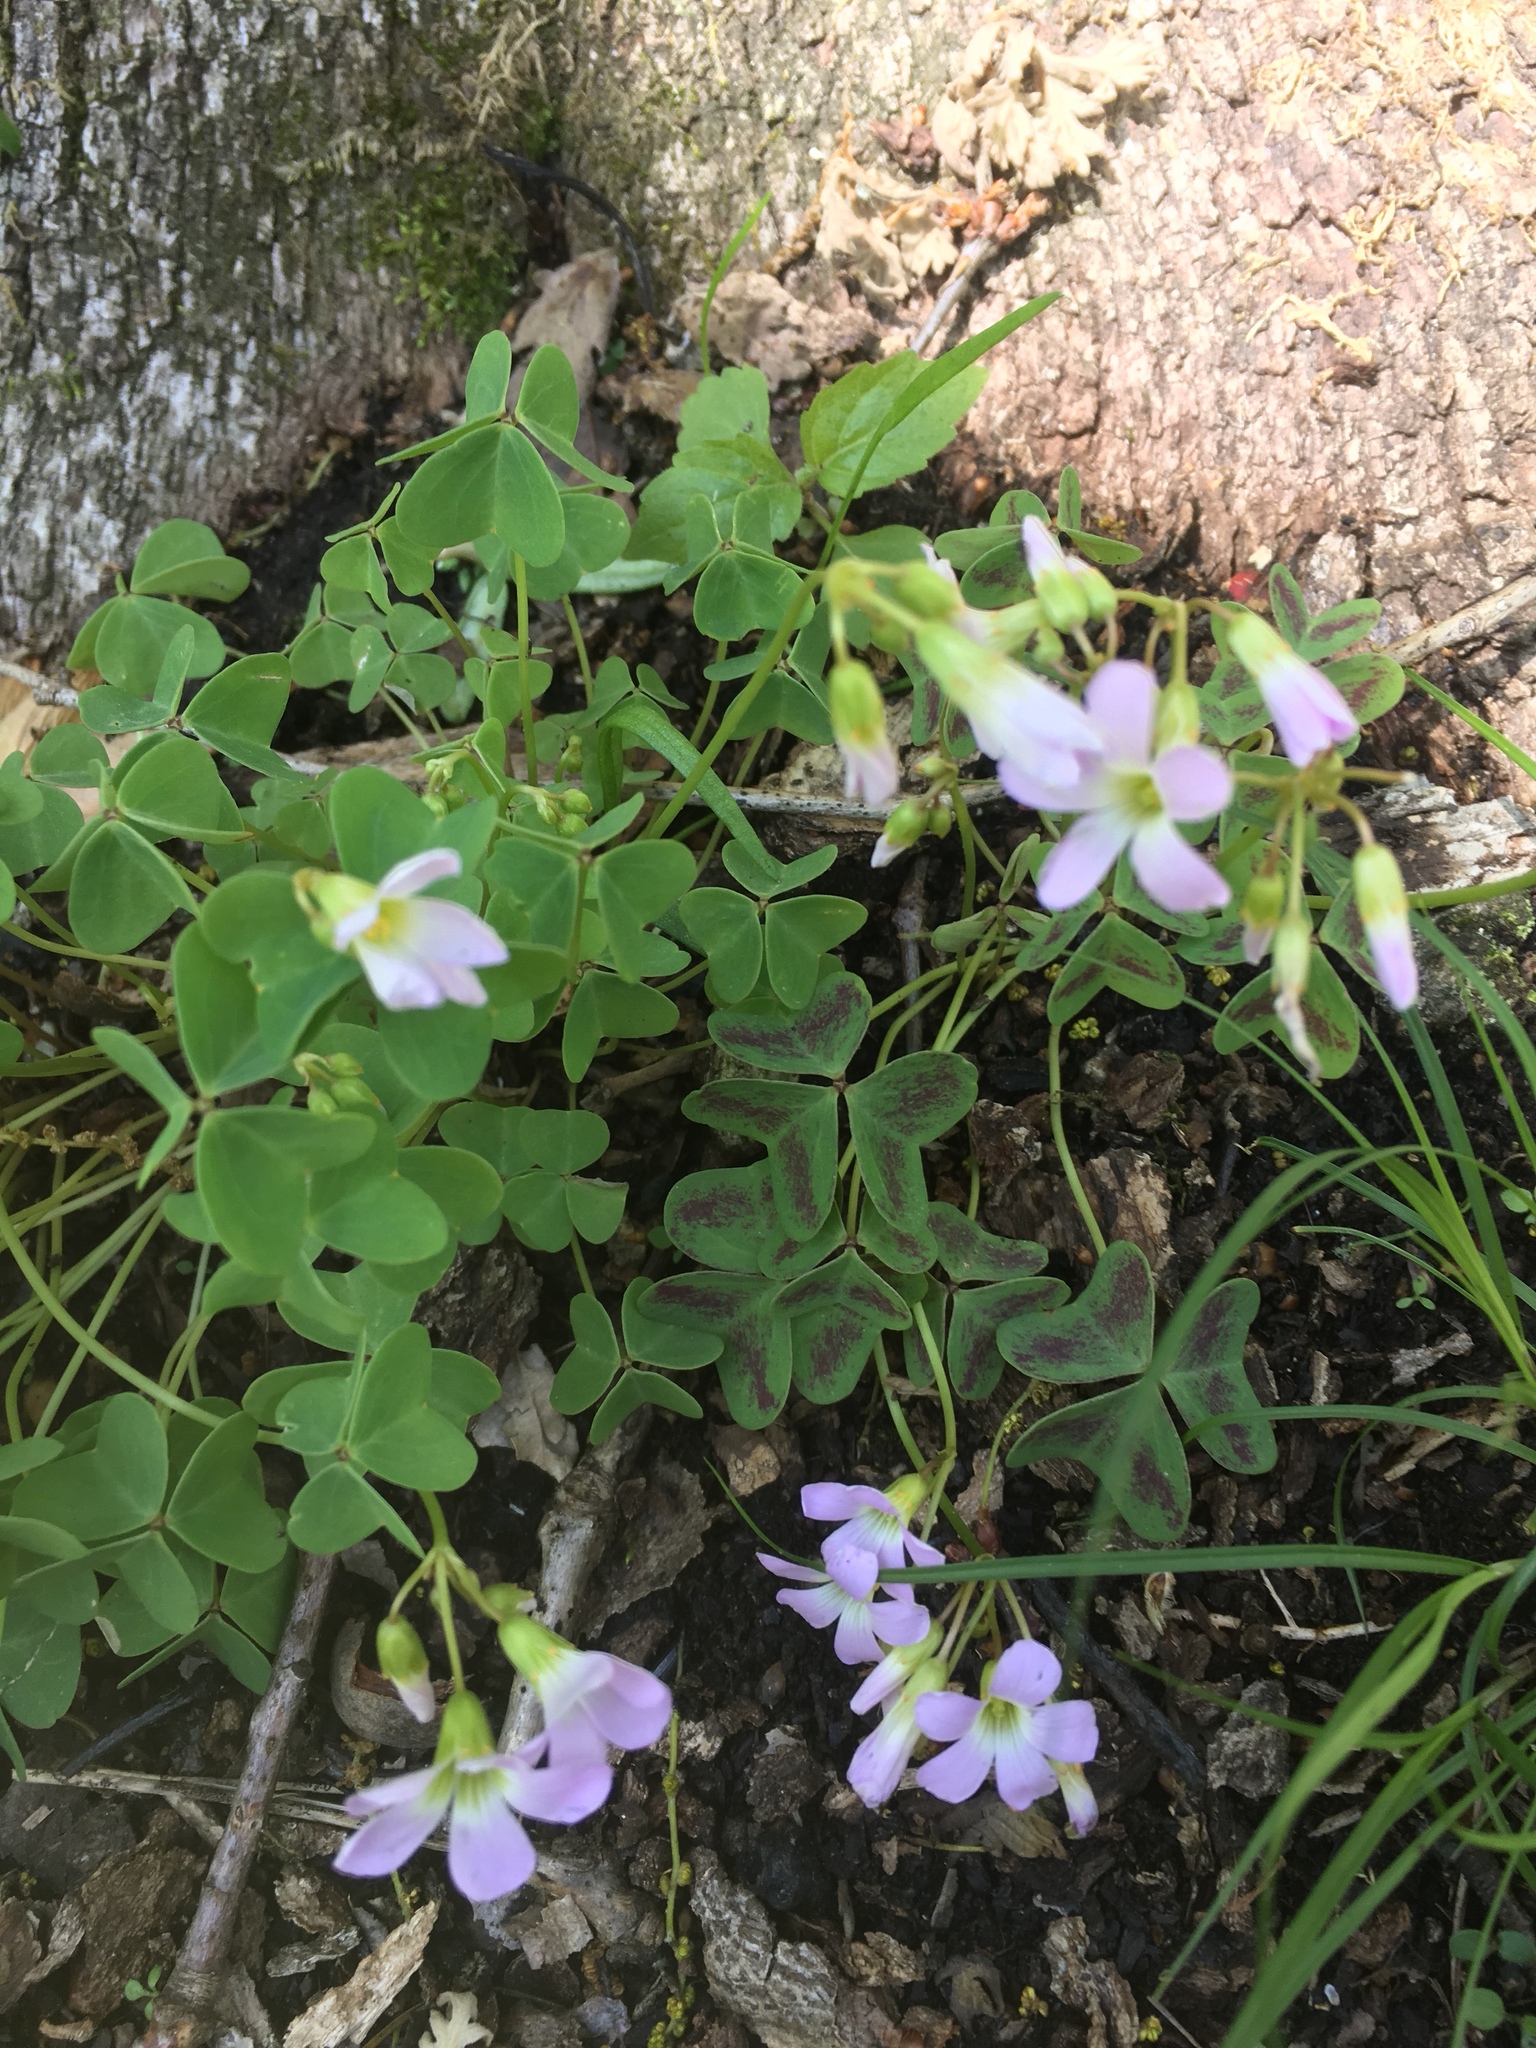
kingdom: Plantae
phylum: Tracheophyta
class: Magnoliopsida
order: Oxalidales
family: Oxalidaceae
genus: Oxalis
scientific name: Oxalis violacea
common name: Violet wood-sorrel
